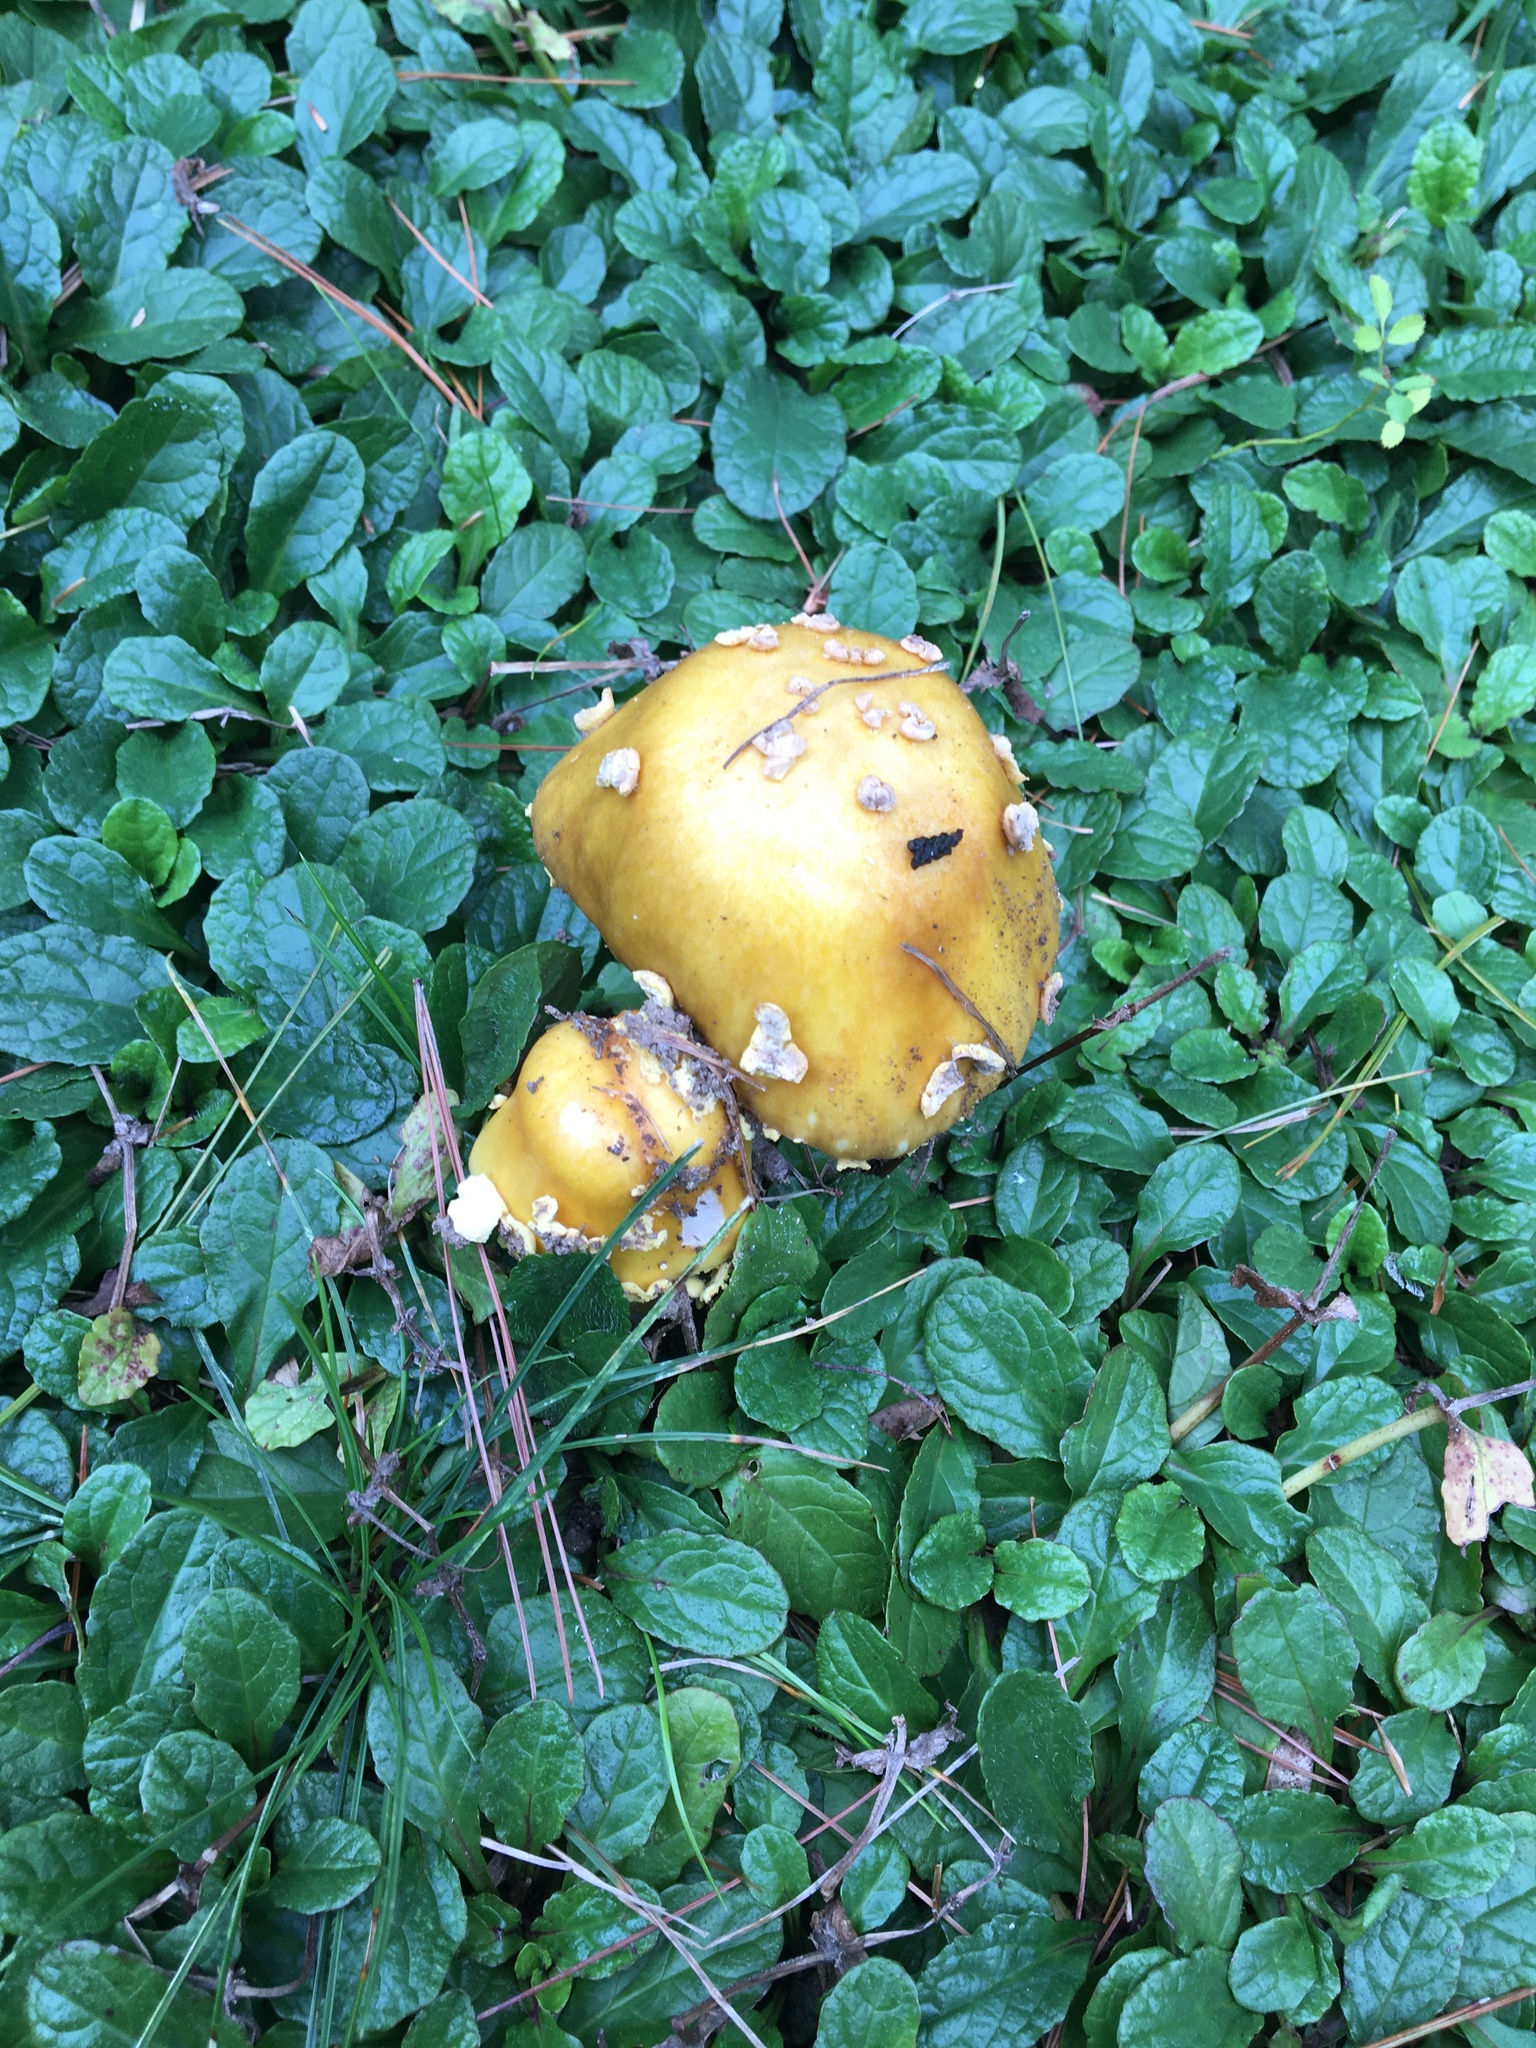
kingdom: Fungi
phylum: Basidiomycota
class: Agaricomycetes
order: Agaricales
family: Amanitaceae
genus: Amanita
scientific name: Amanita flavorubens
